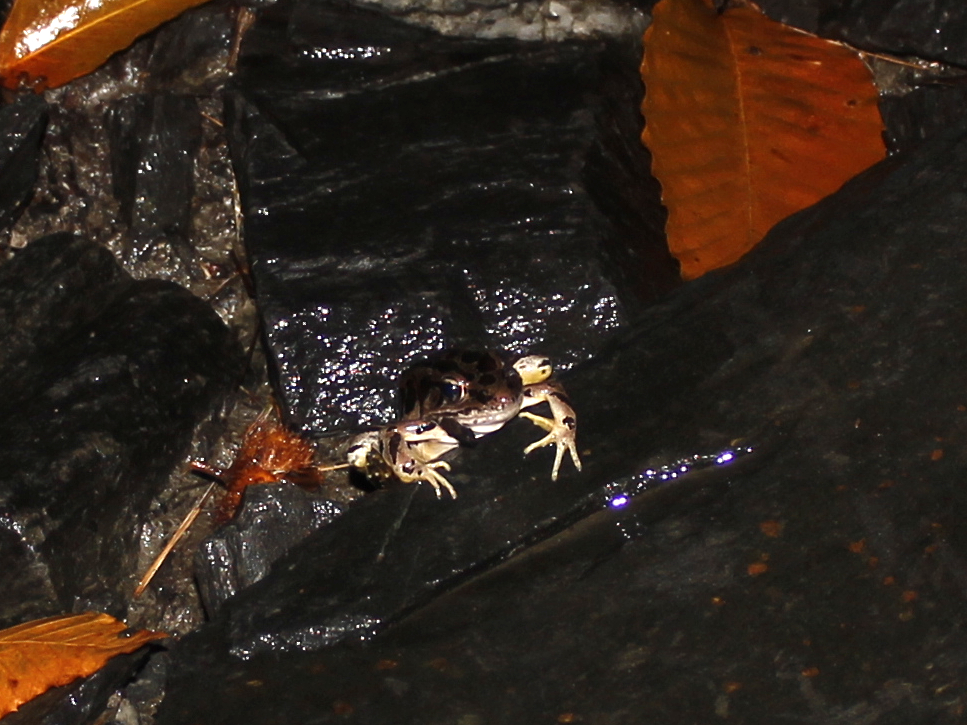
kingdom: Animalia
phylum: Chordata
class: Amphibia
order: Anura
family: Ranidae
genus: Lithobates
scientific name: Lithobates palustris
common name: Pickerel frog
